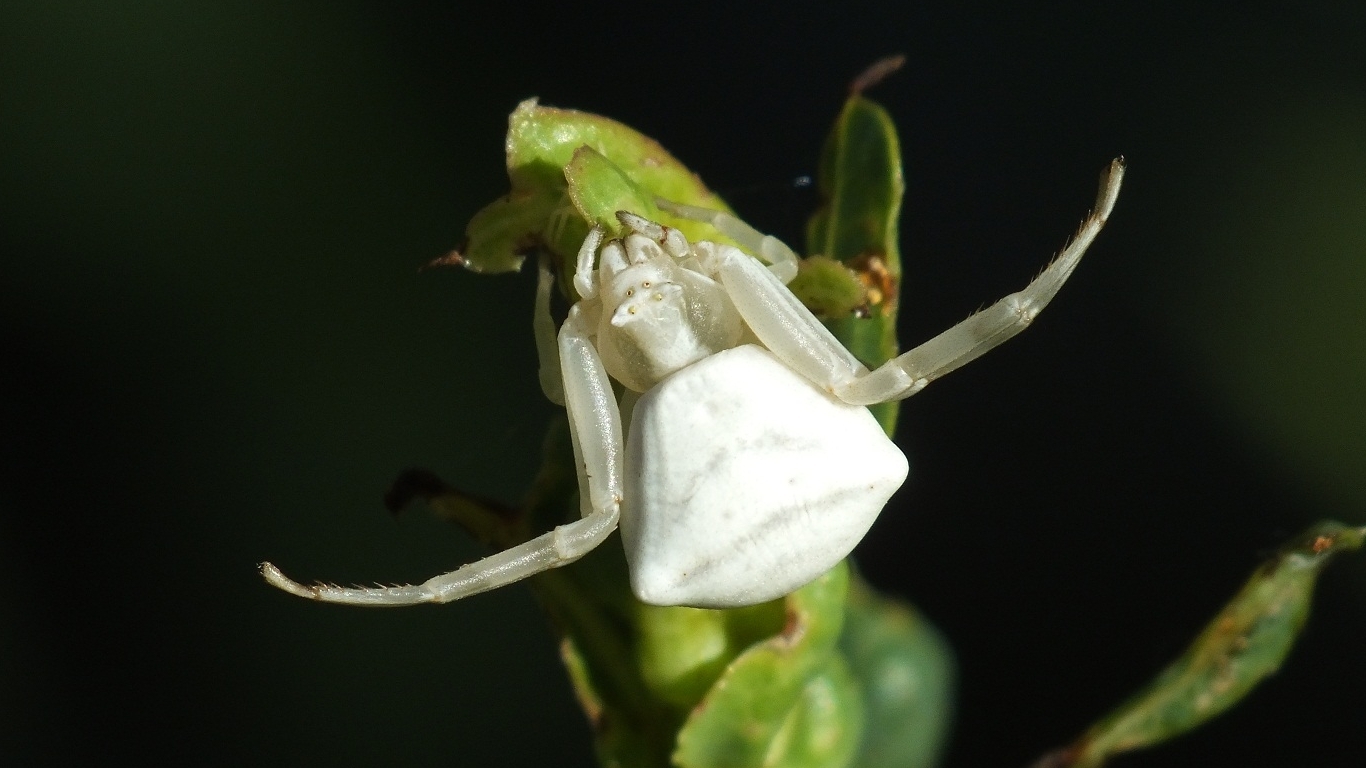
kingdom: Animalia
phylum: Arthropoda
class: Arachnida
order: Araneae
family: Thomisidae
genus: Thomisus
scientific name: Thomisus onustus
